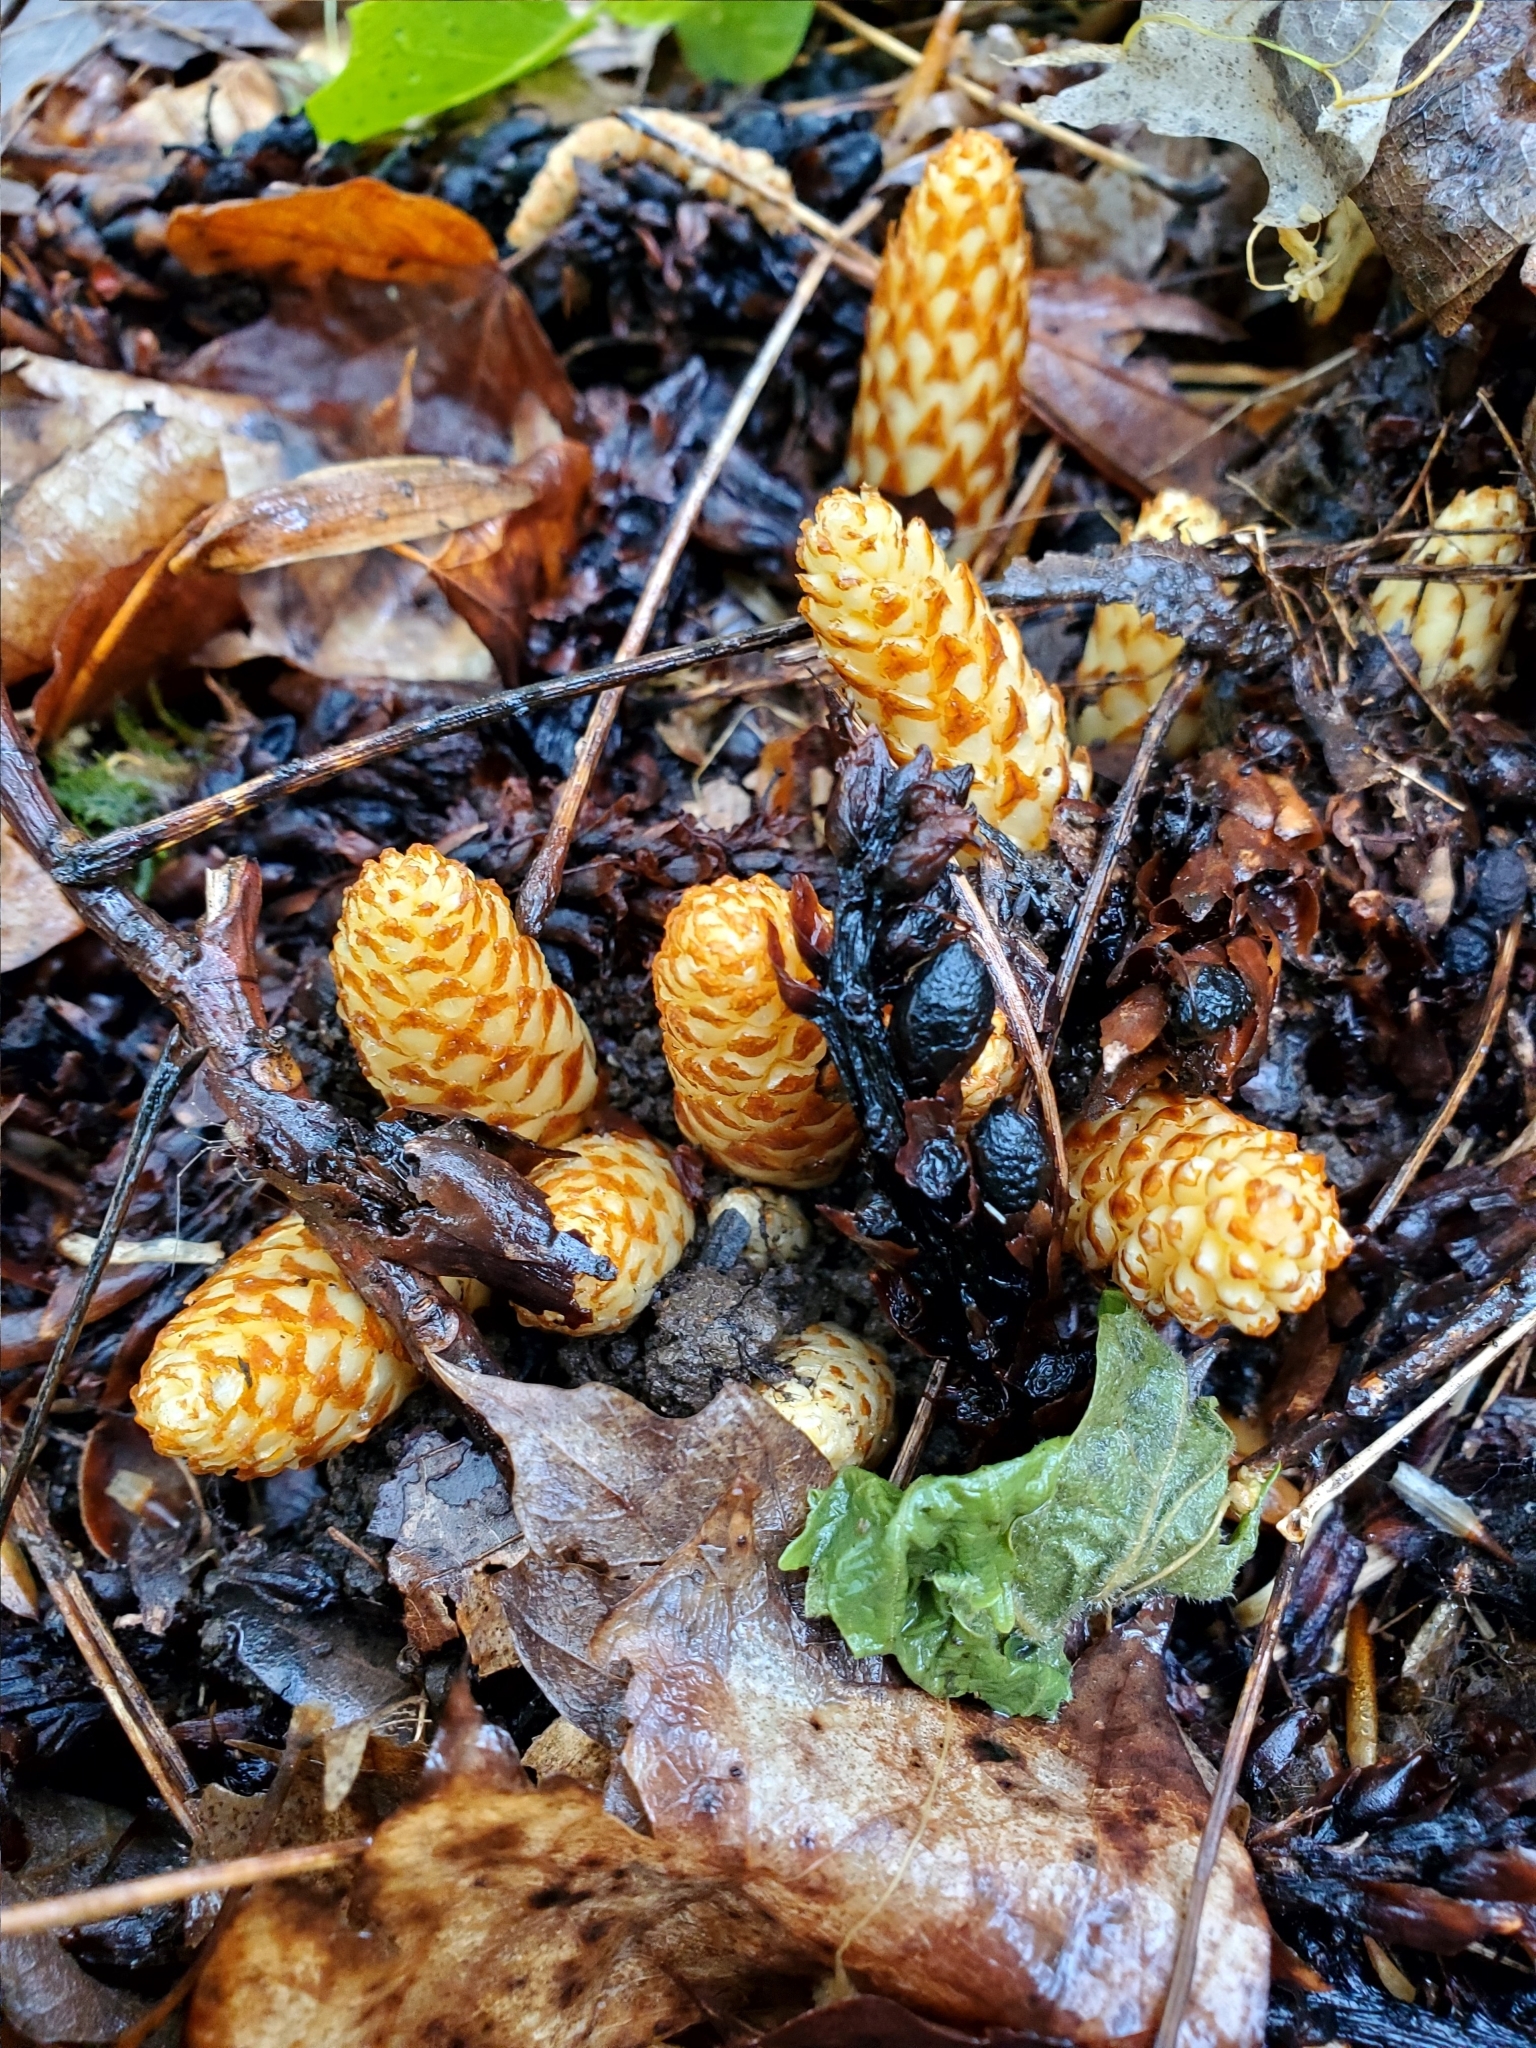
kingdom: Plantae
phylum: Tracheophyta
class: Magnoliopsida
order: Lamiales
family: Orobanchaceae
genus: Conopholis
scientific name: Conopholis americana
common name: American cancer-root
